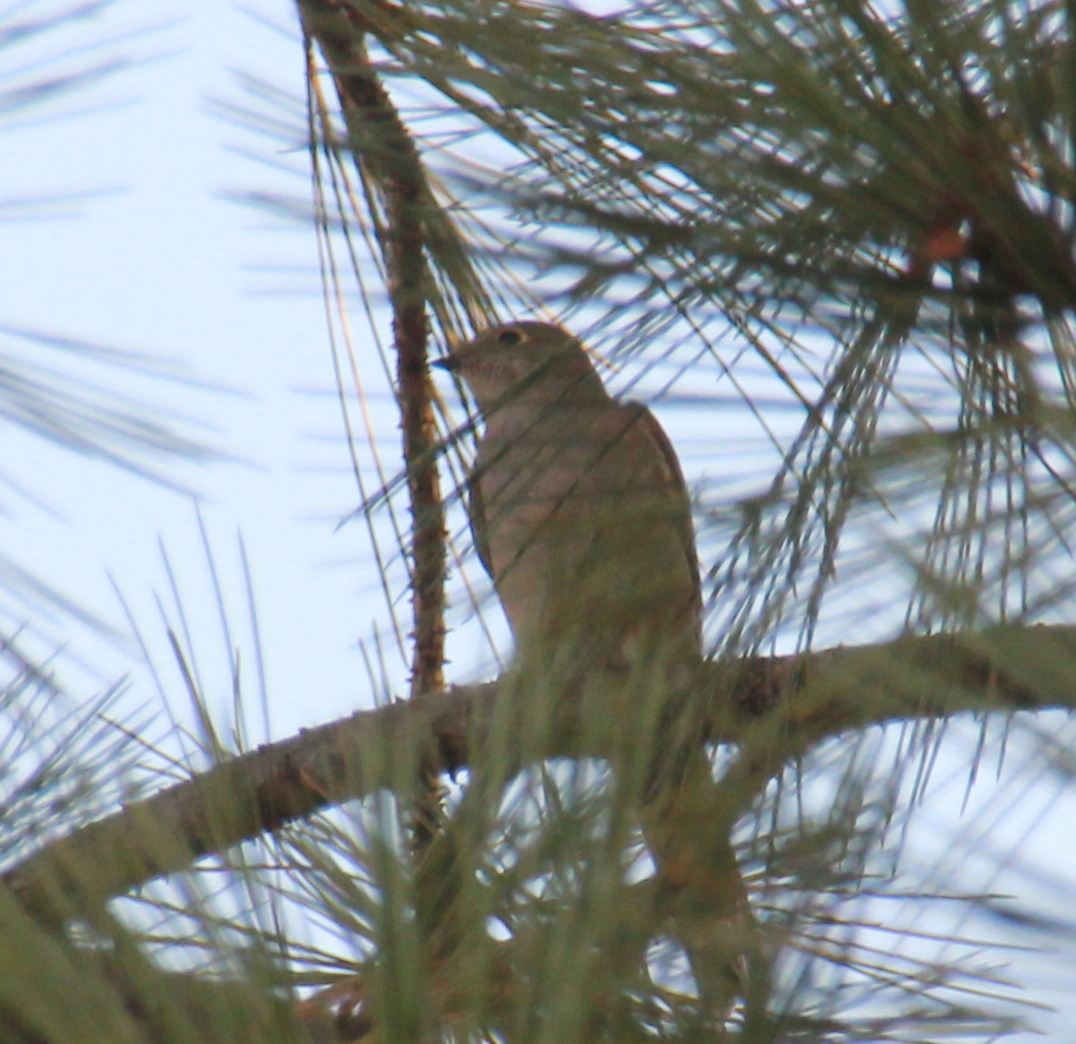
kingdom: Animalia
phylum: Chordata
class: Aves
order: Passeriformes
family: Turdidae
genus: Myadestes
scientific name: Myadestes townsendi
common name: Townsend's solitaire
